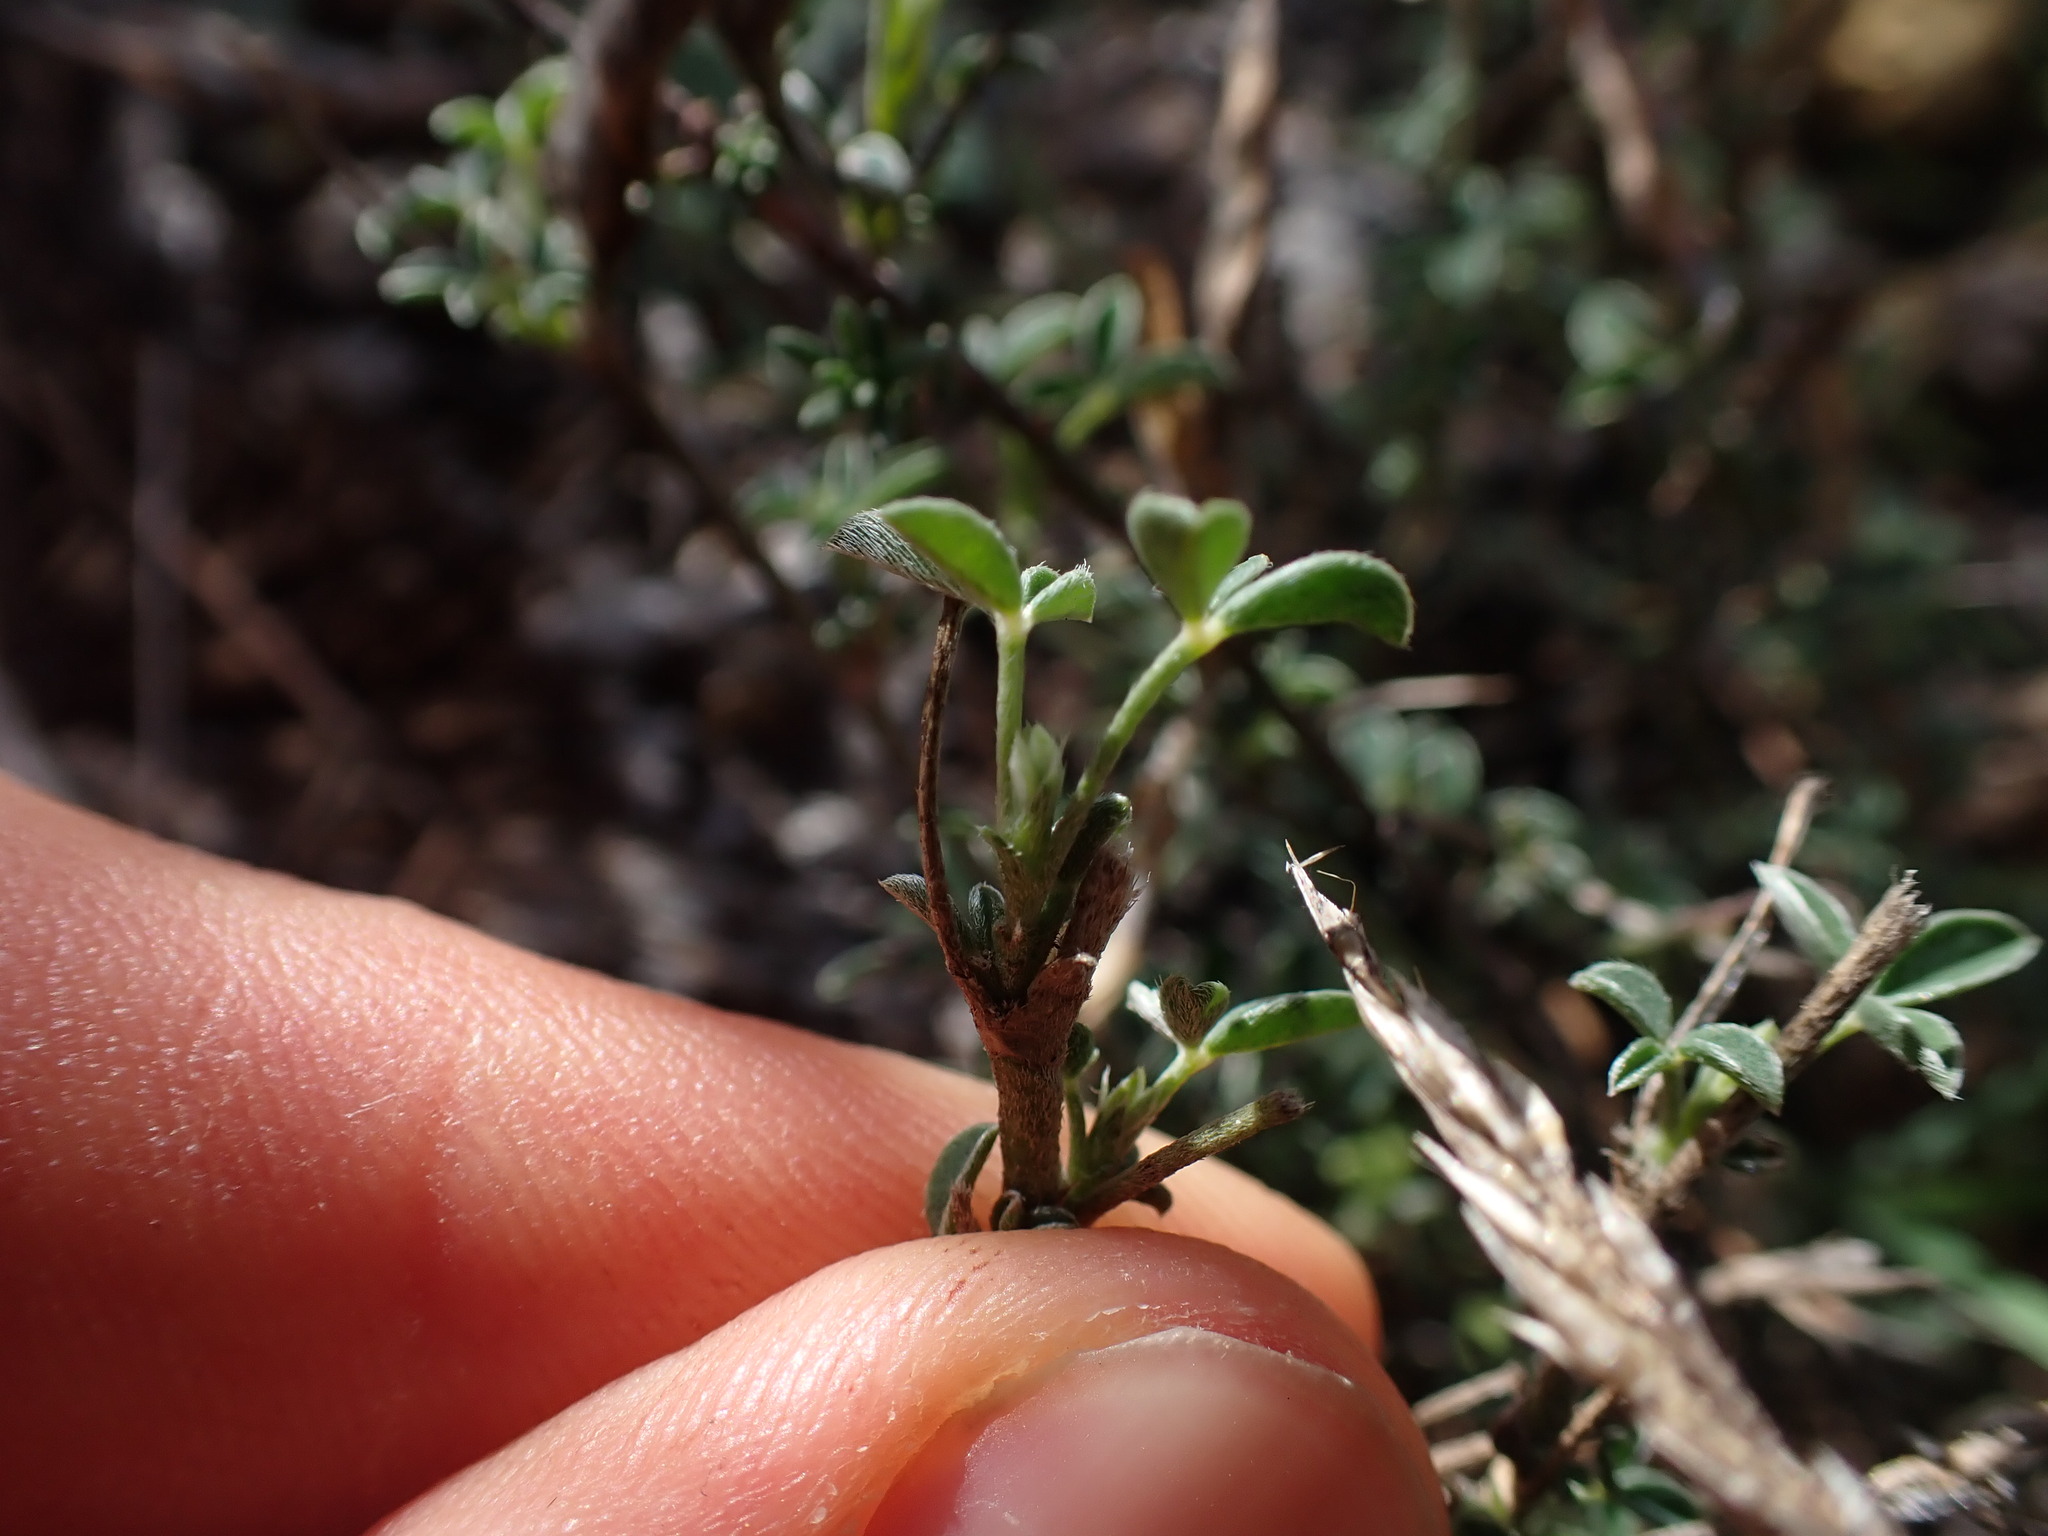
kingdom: Plantae
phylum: Tracheophyta
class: Magnoliopsida
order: Fabales
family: Fabaceae
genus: Argyrolobium
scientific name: Argyrolobium zanonii
